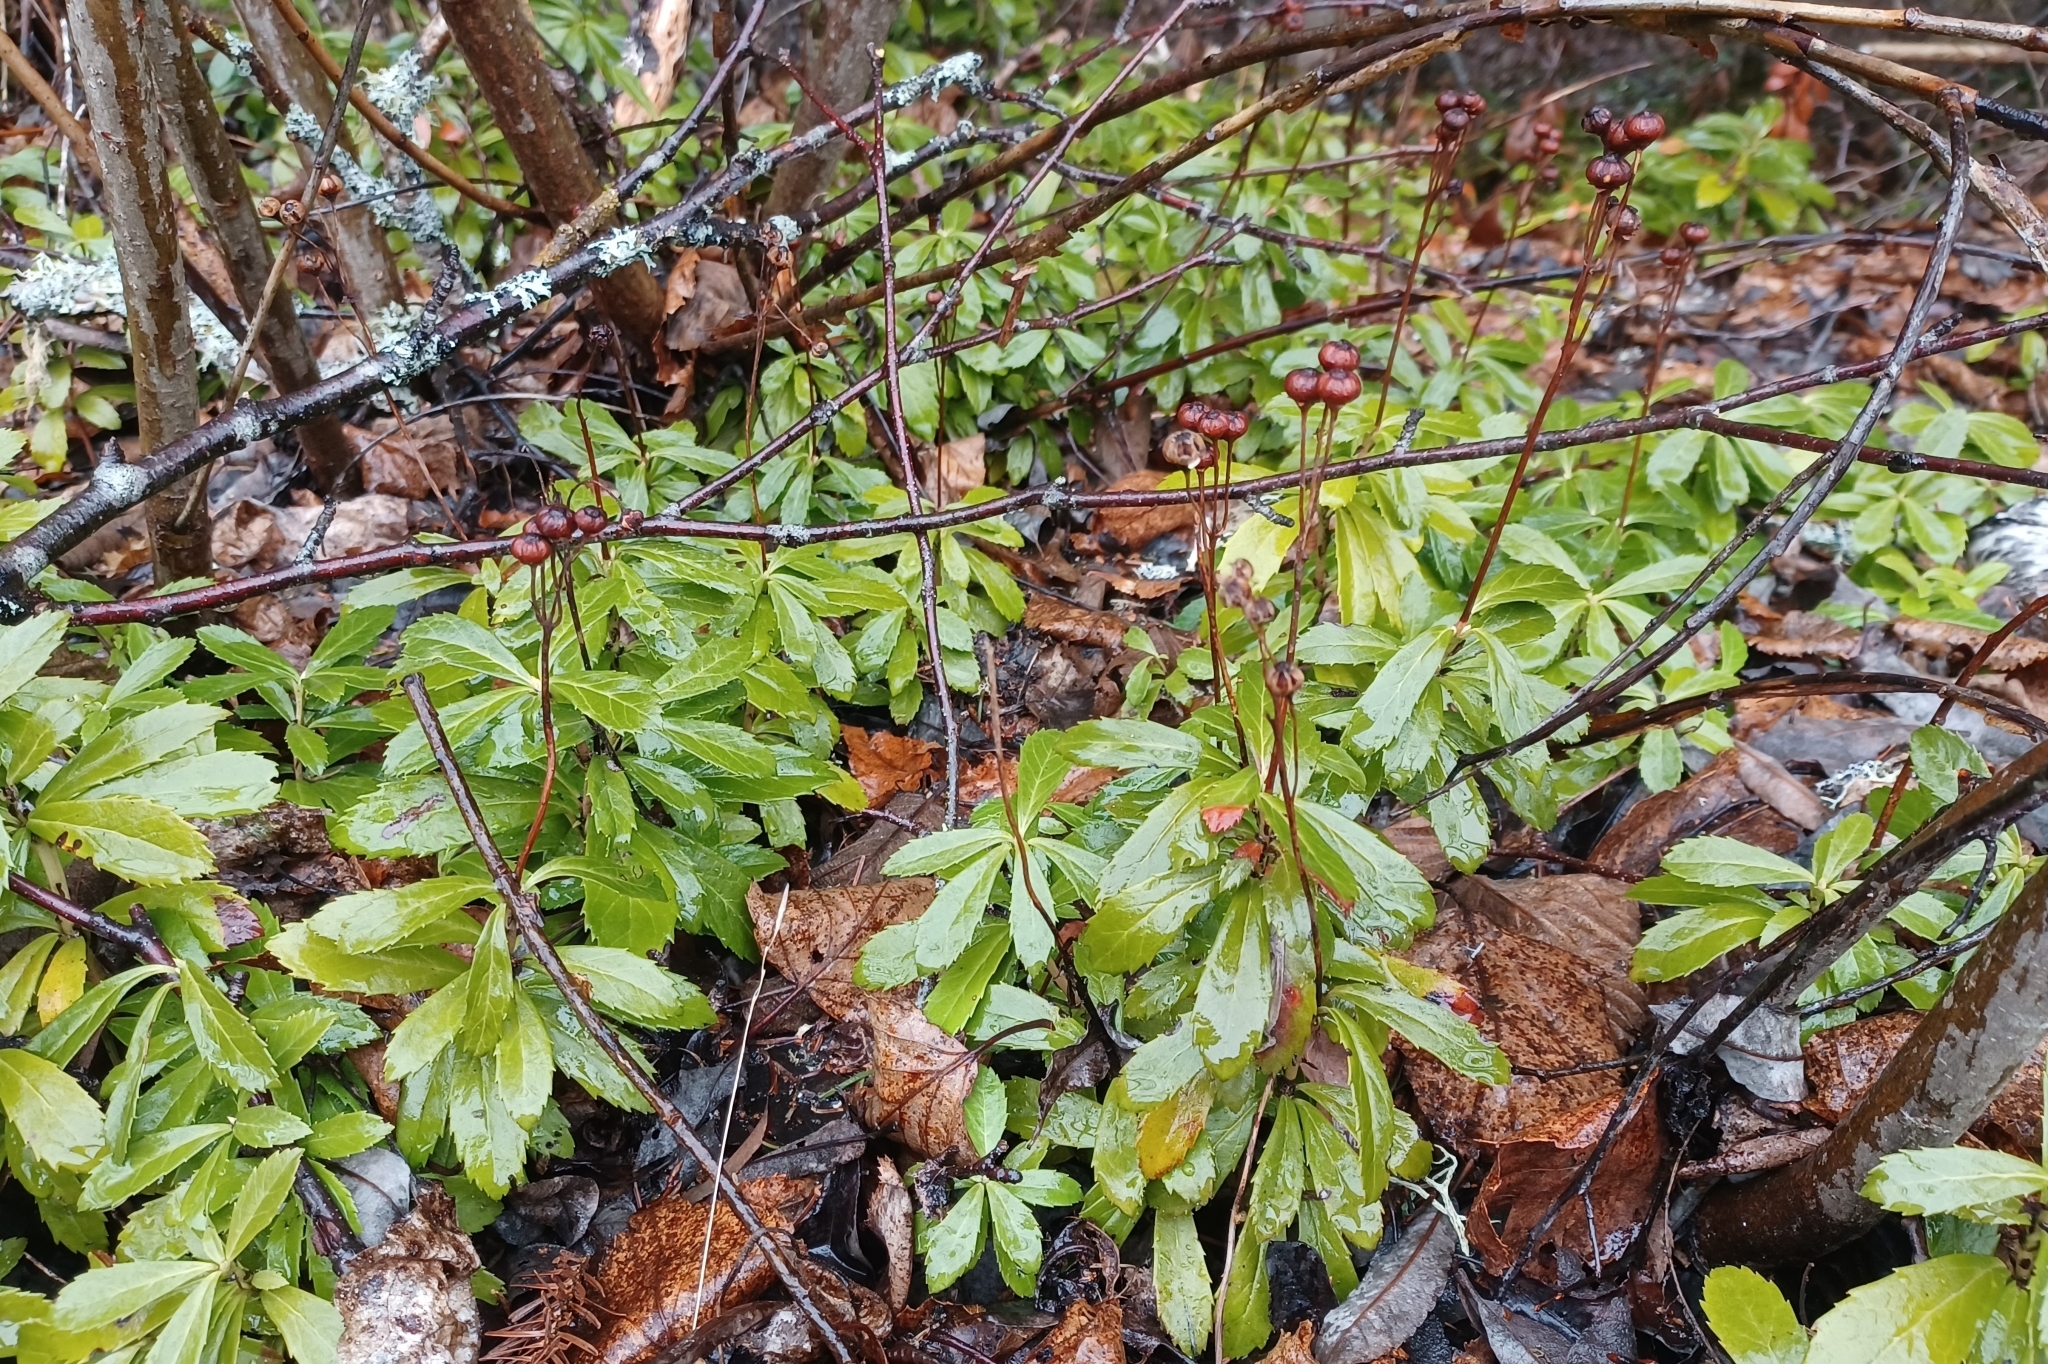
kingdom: Plantae
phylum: Tracheophyta
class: Magnoliopsida
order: Ericales
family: Ericaceae
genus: Chimaphila
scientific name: Chimaphila umbellata
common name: Pipsissewa
